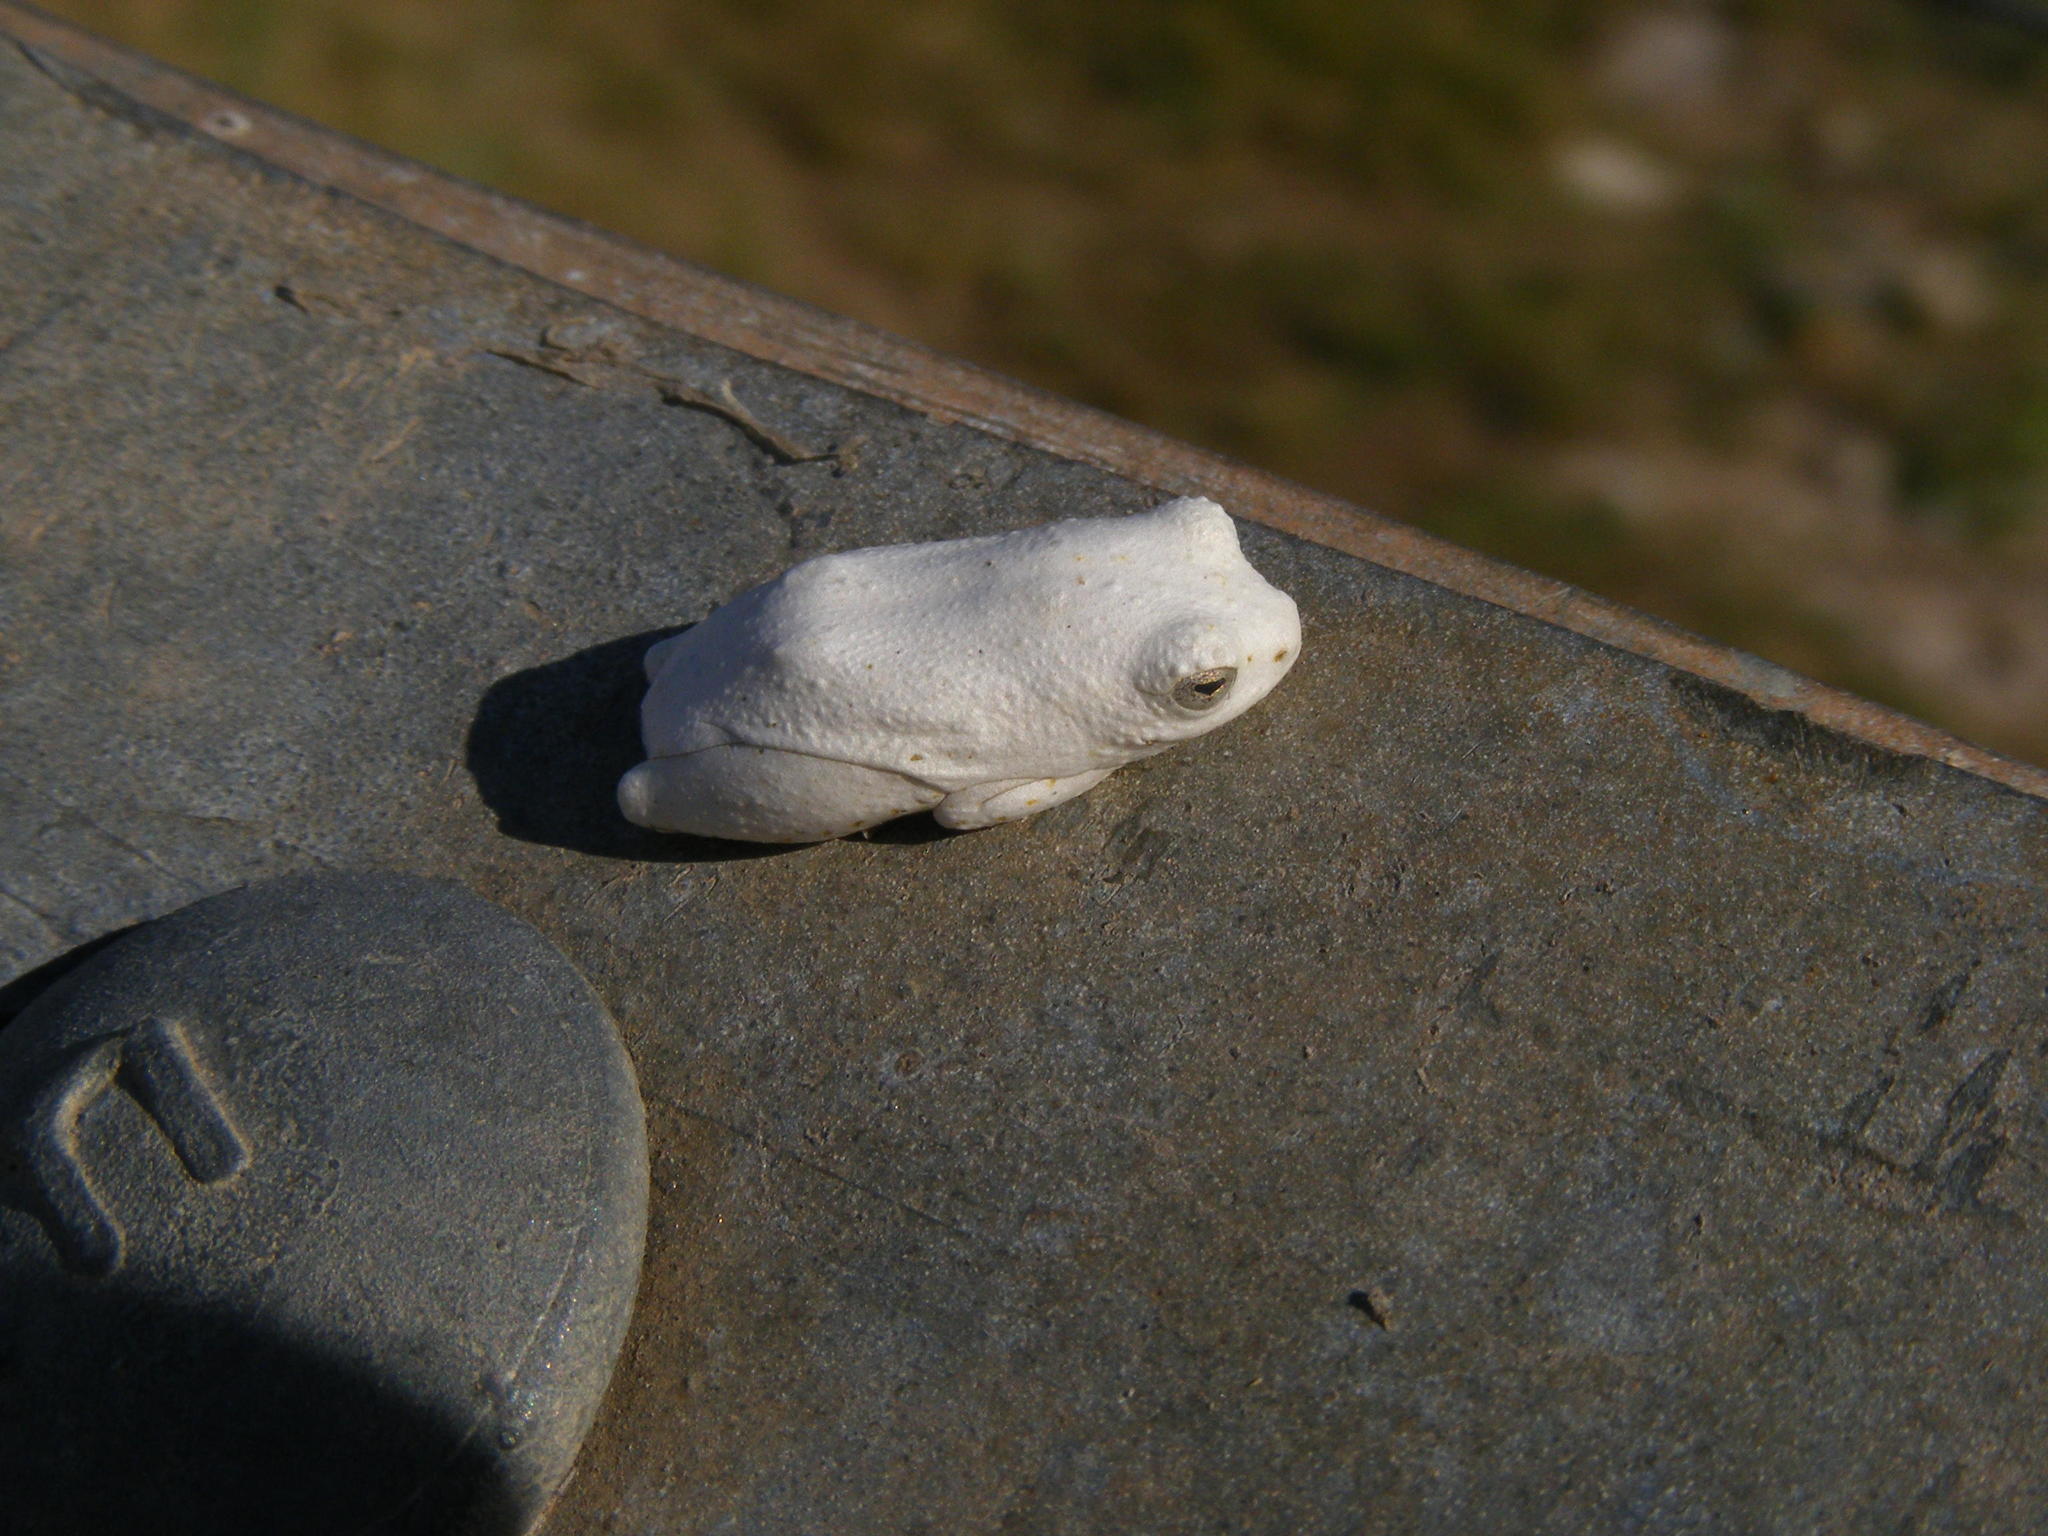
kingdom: Animalia
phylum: Chordata
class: Amphibia
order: Anura
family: Hyperoliidae
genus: Hyperolius
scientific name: Hyperolius marmoratus
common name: Painted reed frog
